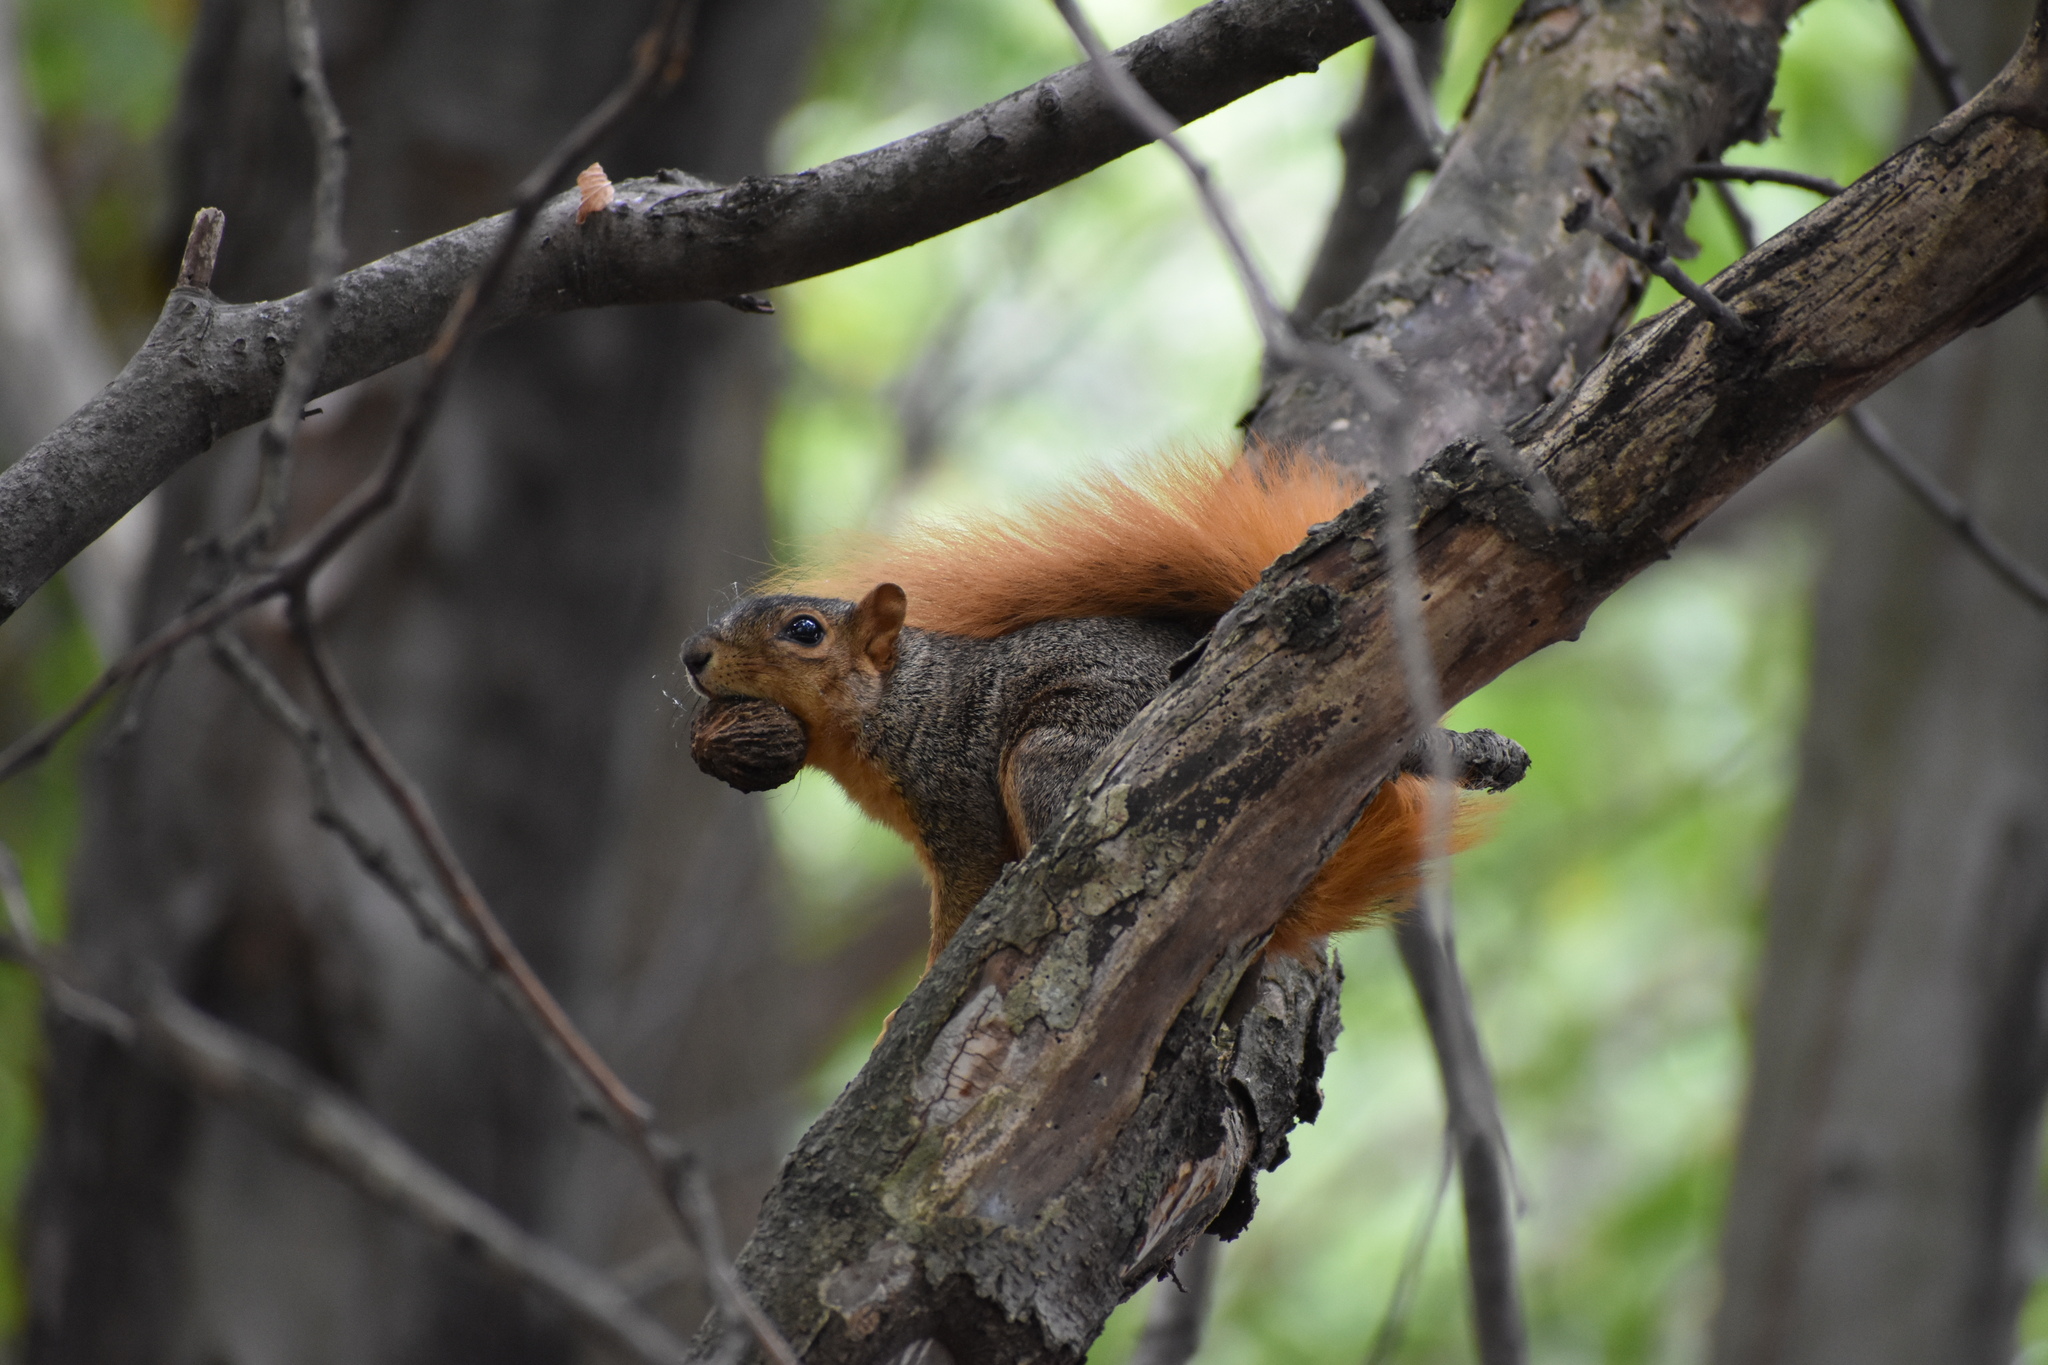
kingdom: Animalia
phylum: Chordata
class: Mammalia
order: Rodentia
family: Sciuridae
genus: Sciurus
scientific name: Sciurus niger
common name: Fox squirrel
